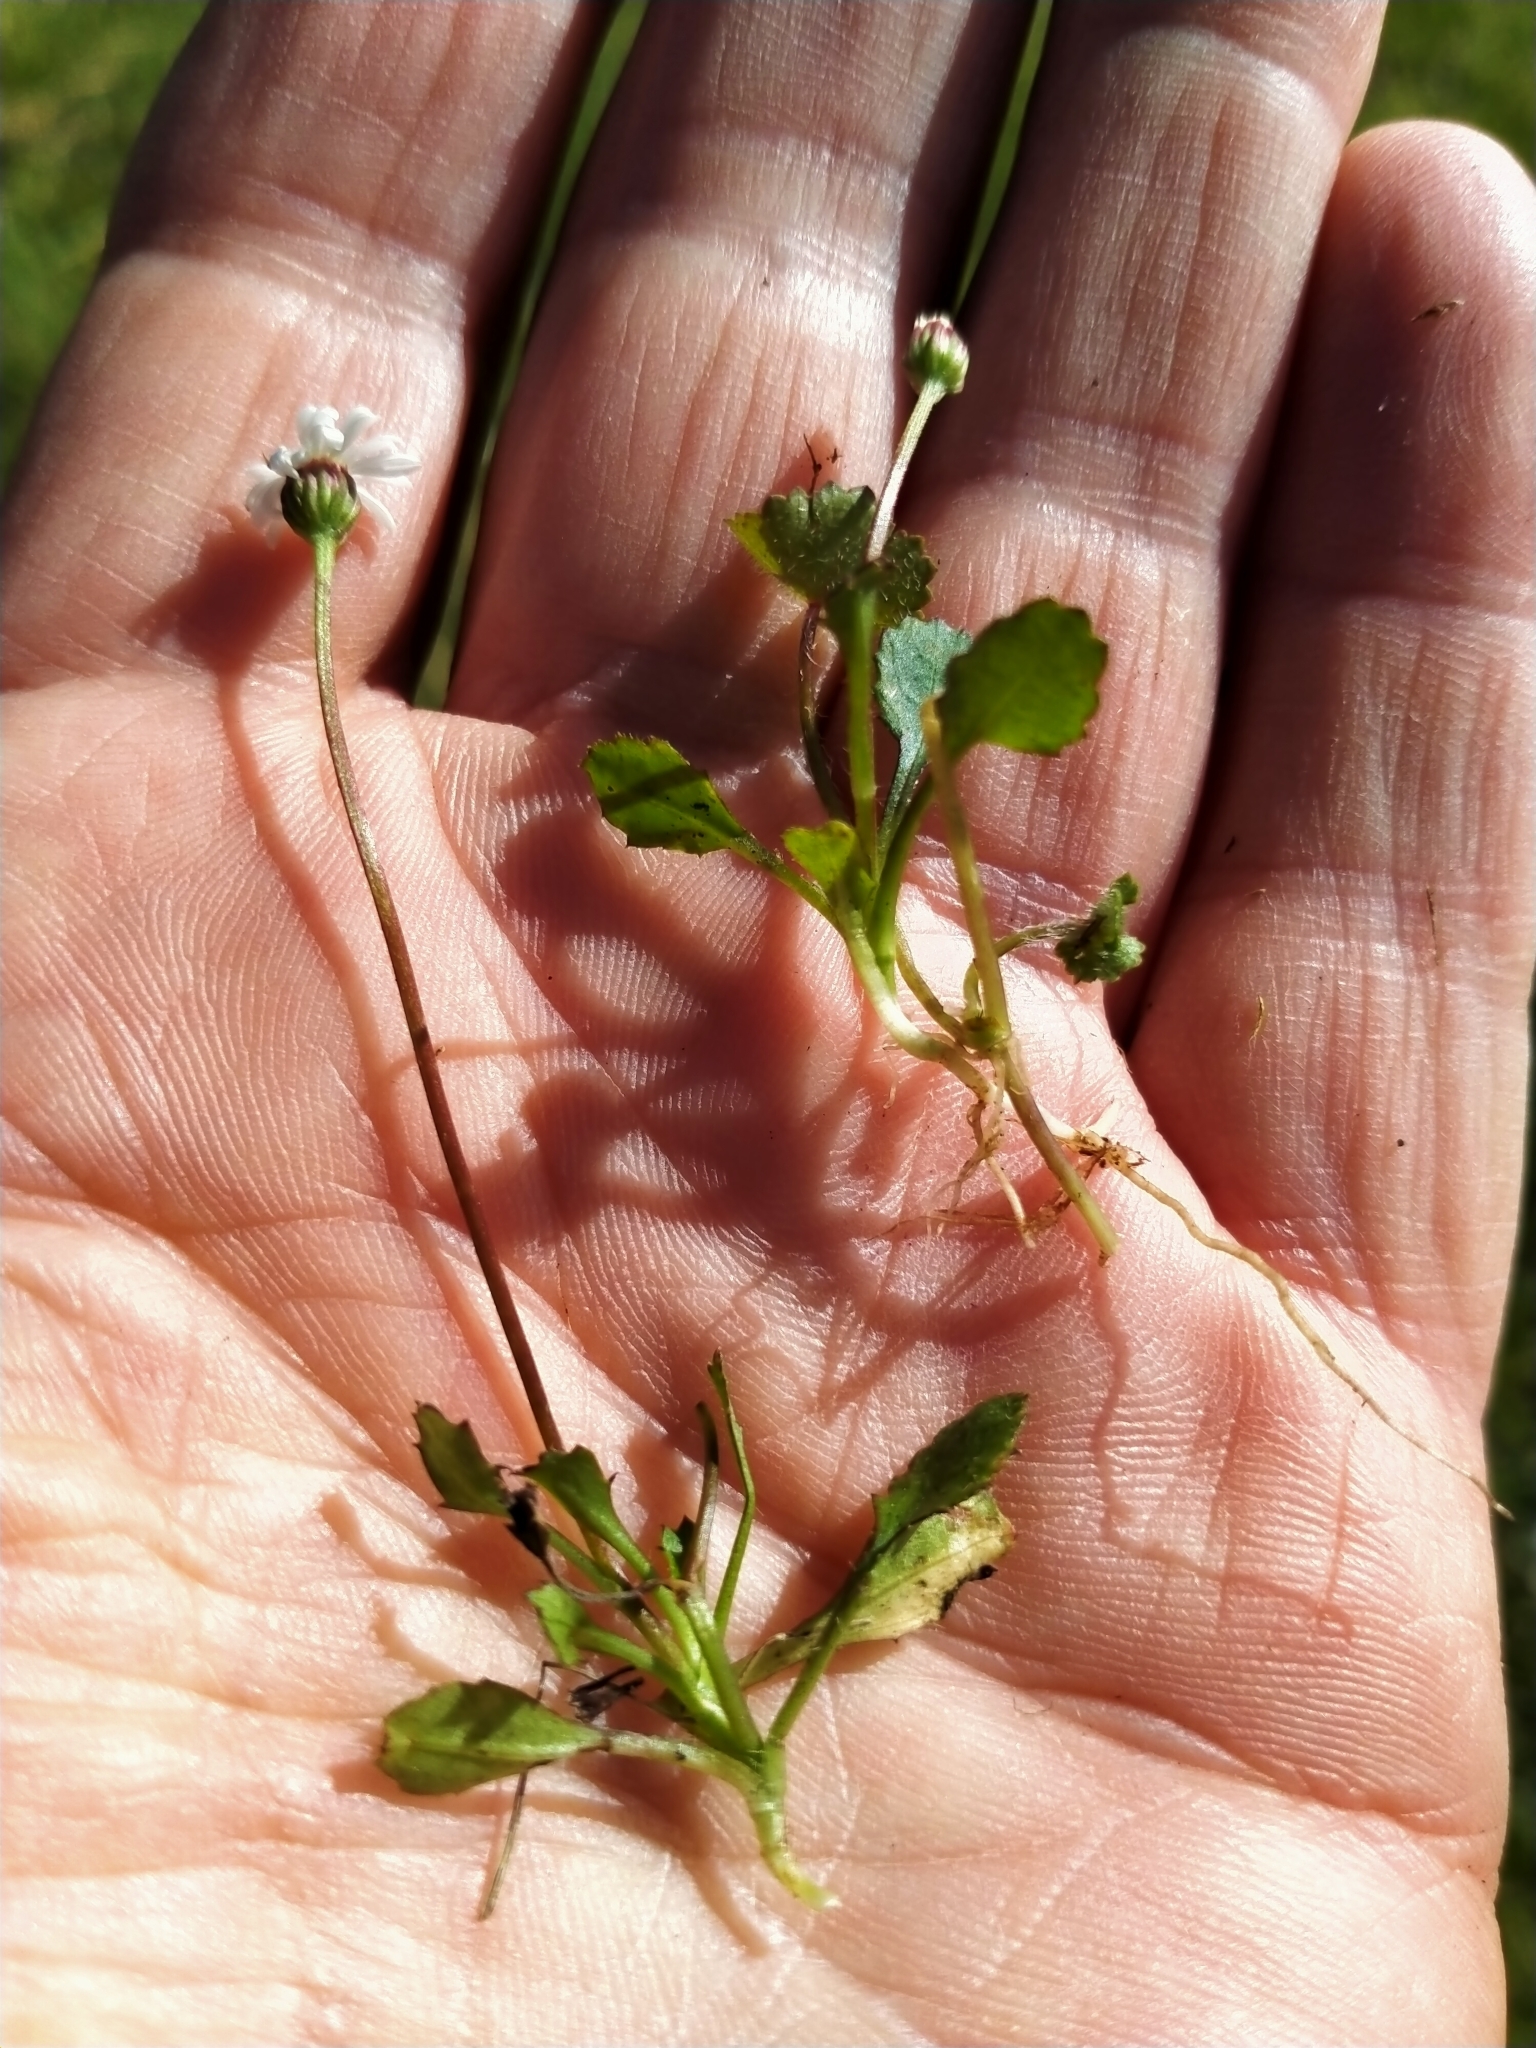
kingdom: Plantae
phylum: Tracheophyta
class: Magnoliopsida
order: Asterales
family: Asteraceae
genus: Lagenophora
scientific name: Lagenophora pumila
